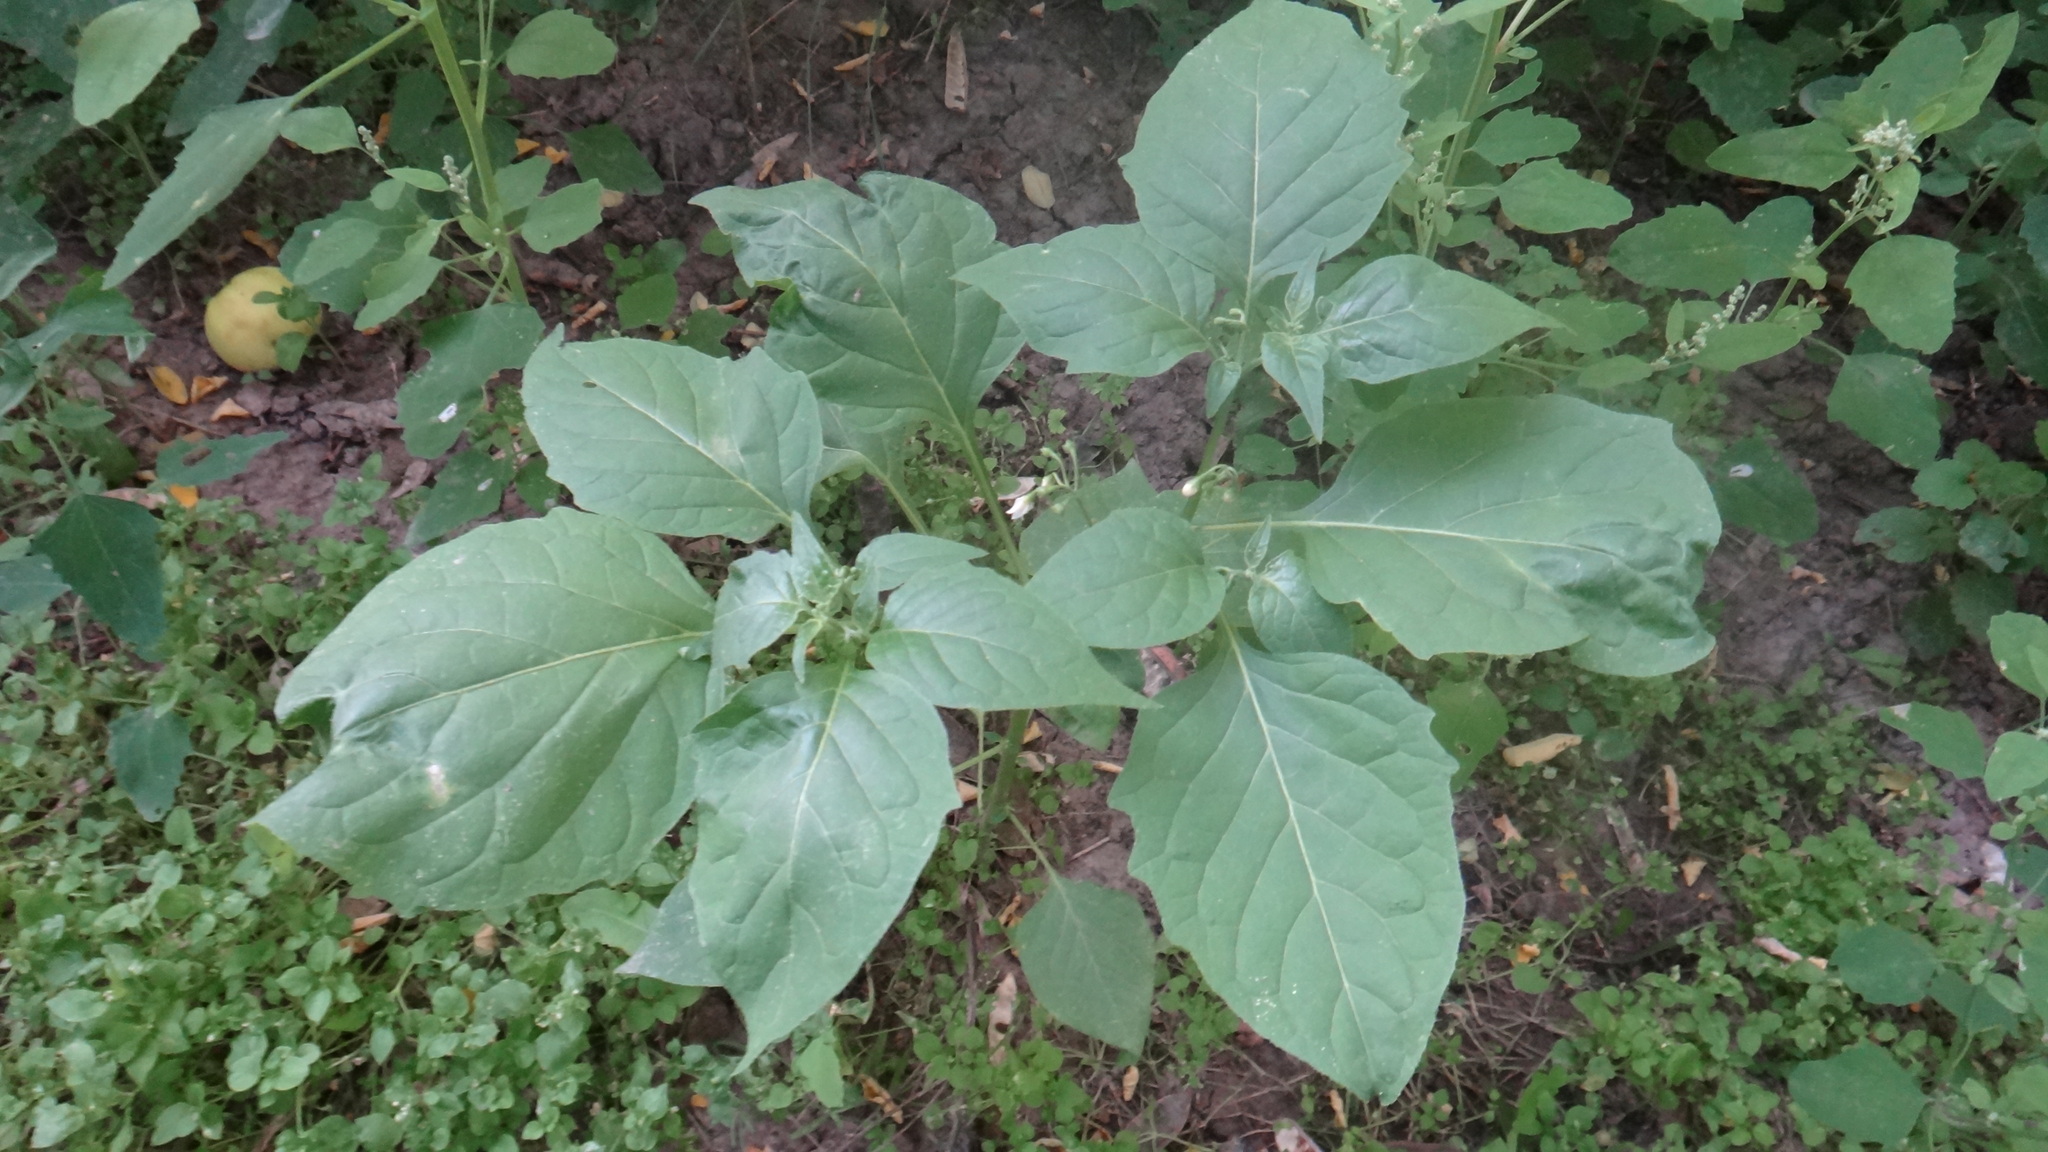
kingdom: Plantae
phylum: Tracheophyta
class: Magnoliopsida
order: Solanales
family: Solanaceae
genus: Solanum
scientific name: Solanum nigrum
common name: Black nightshade
